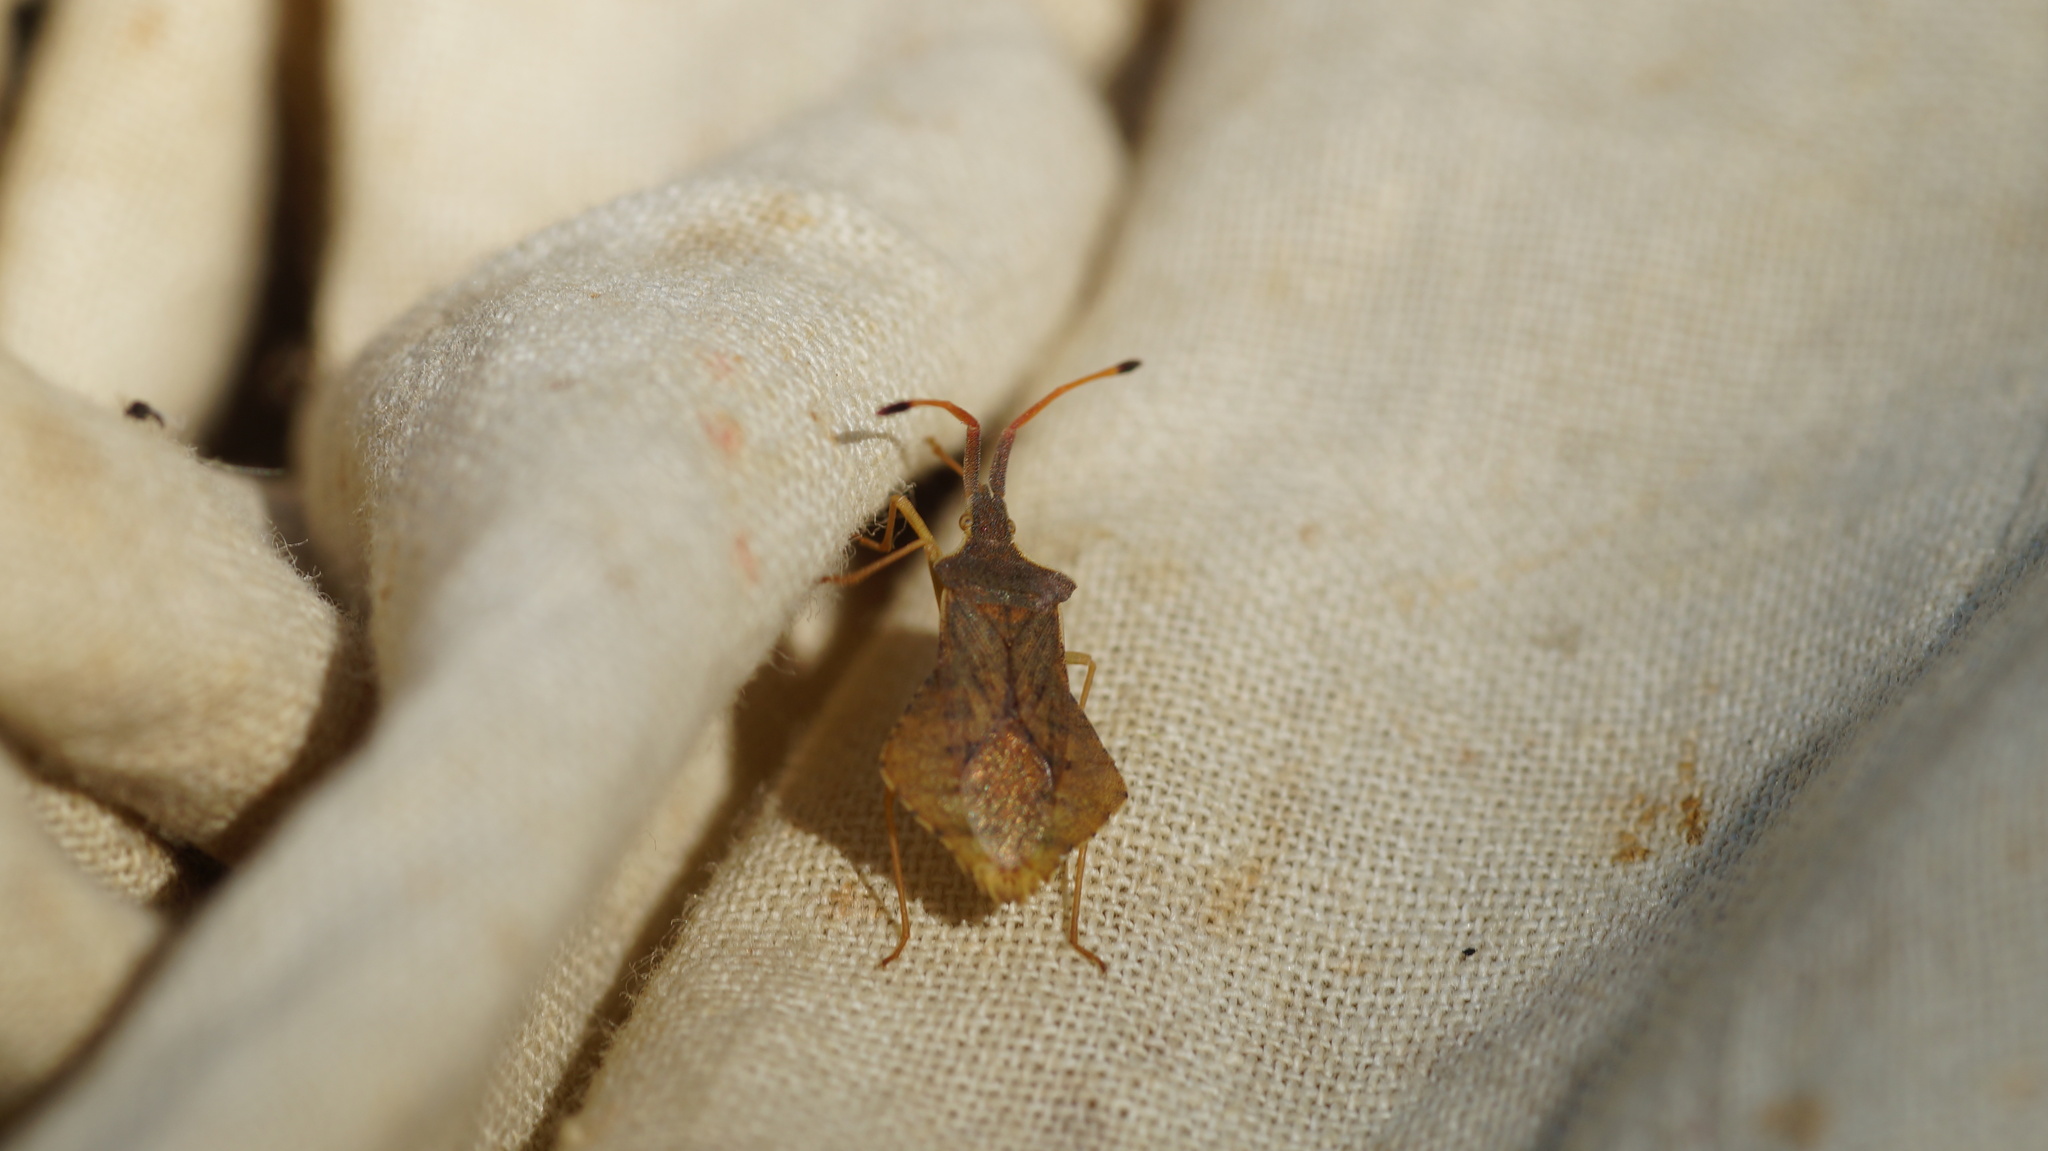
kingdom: Animalia
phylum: Arthropoda
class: Insecta
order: Hemiptera
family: Coreidae
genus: Syromastus
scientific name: Syromastus rhombeus
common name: Rhombic leatherbug
